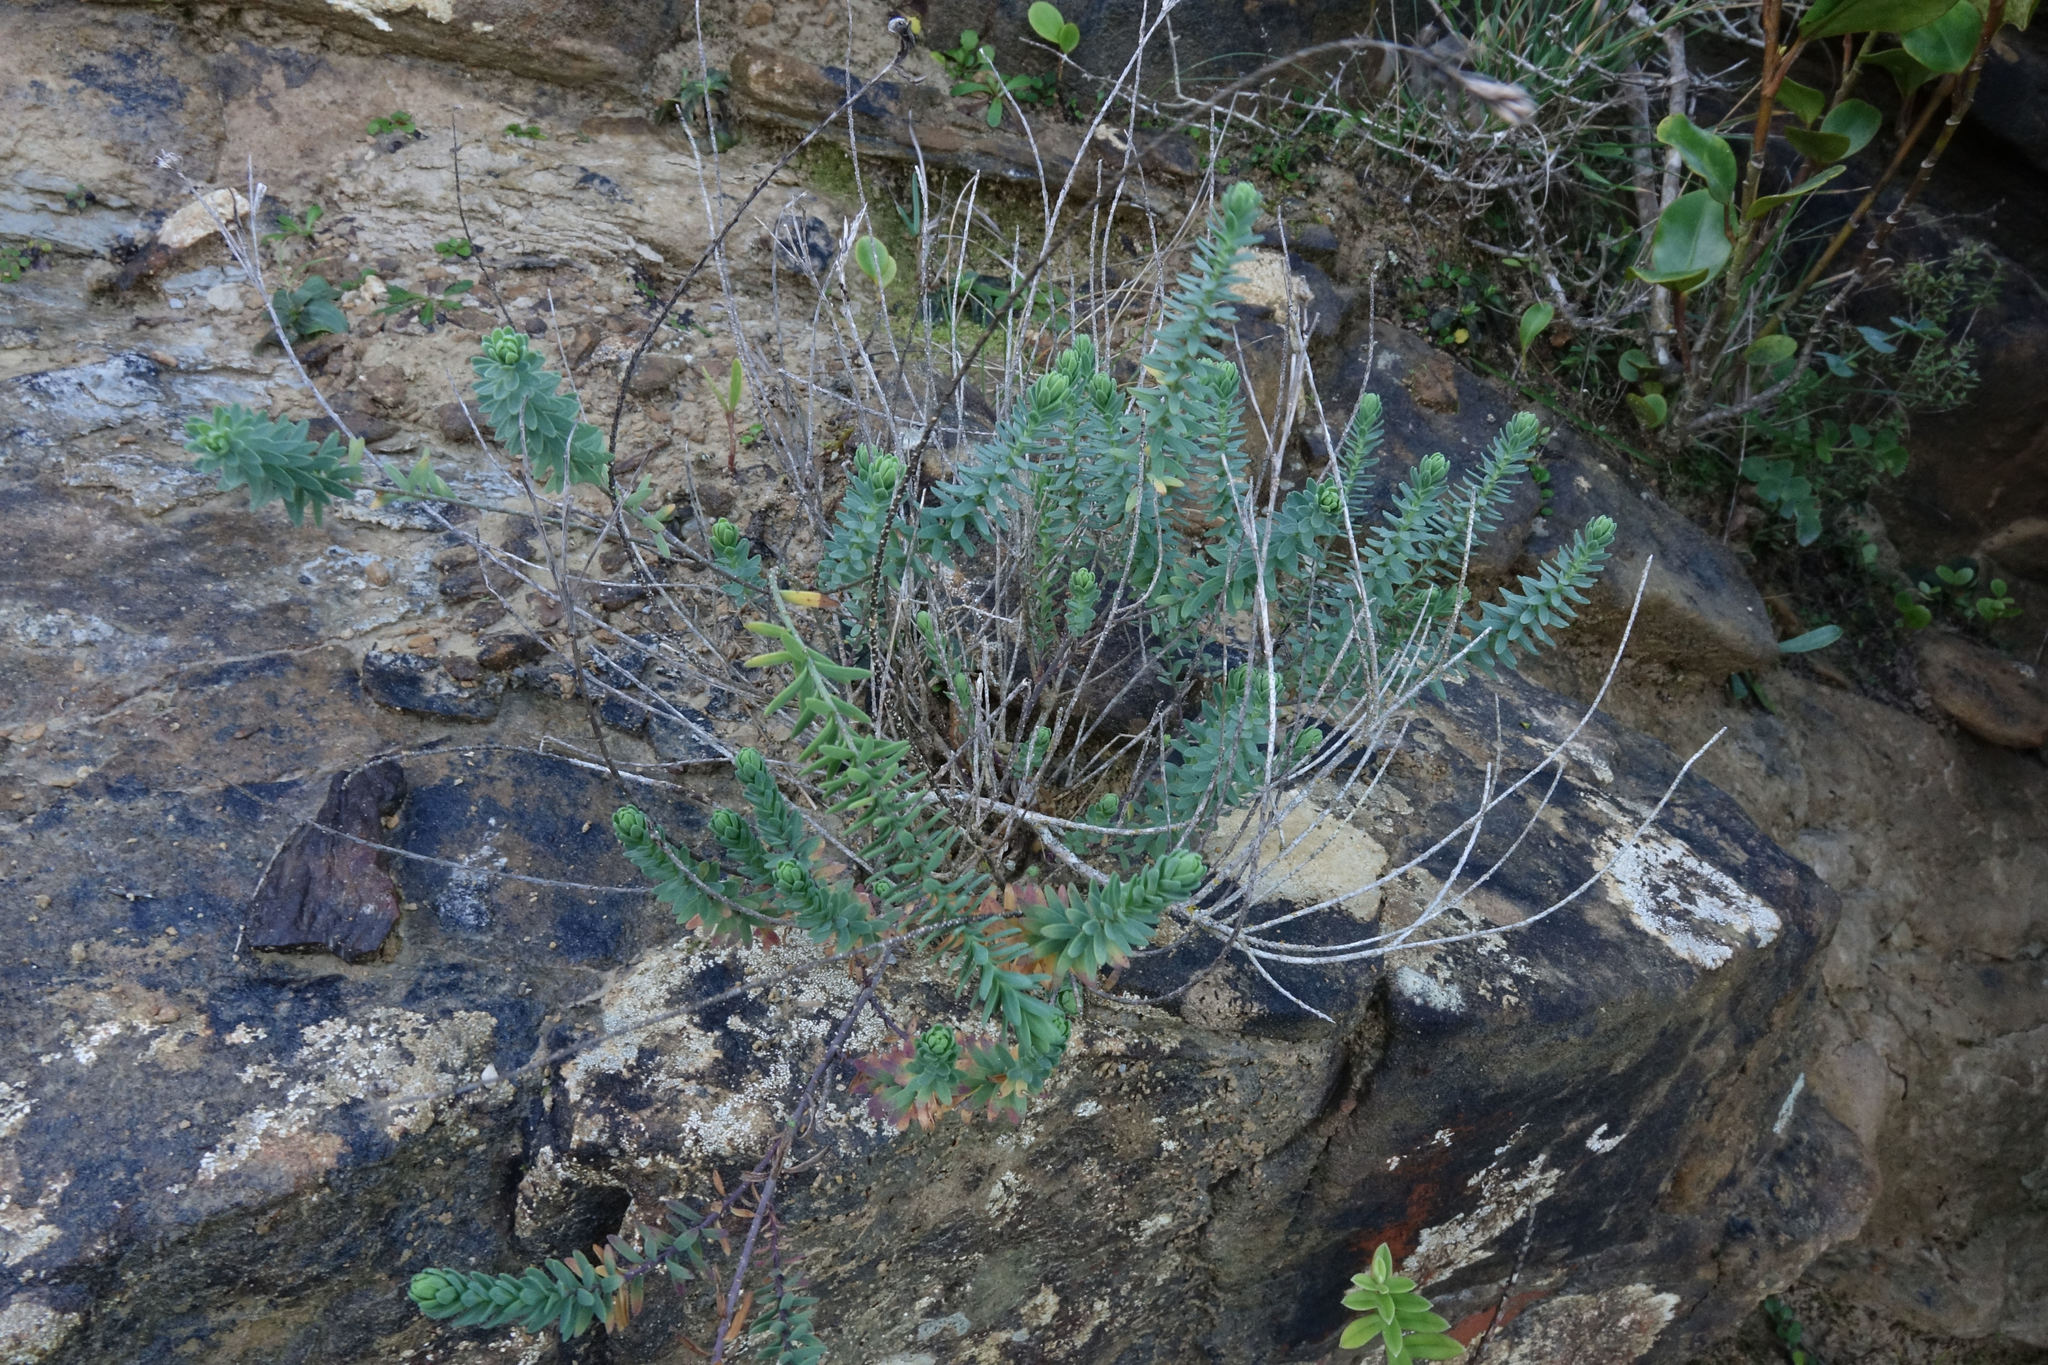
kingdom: Plantae
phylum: Tracheophyta
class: Magnoliopsida
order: Malpighiales
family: Linaceae
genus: Linum
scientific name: Linum monogynum
